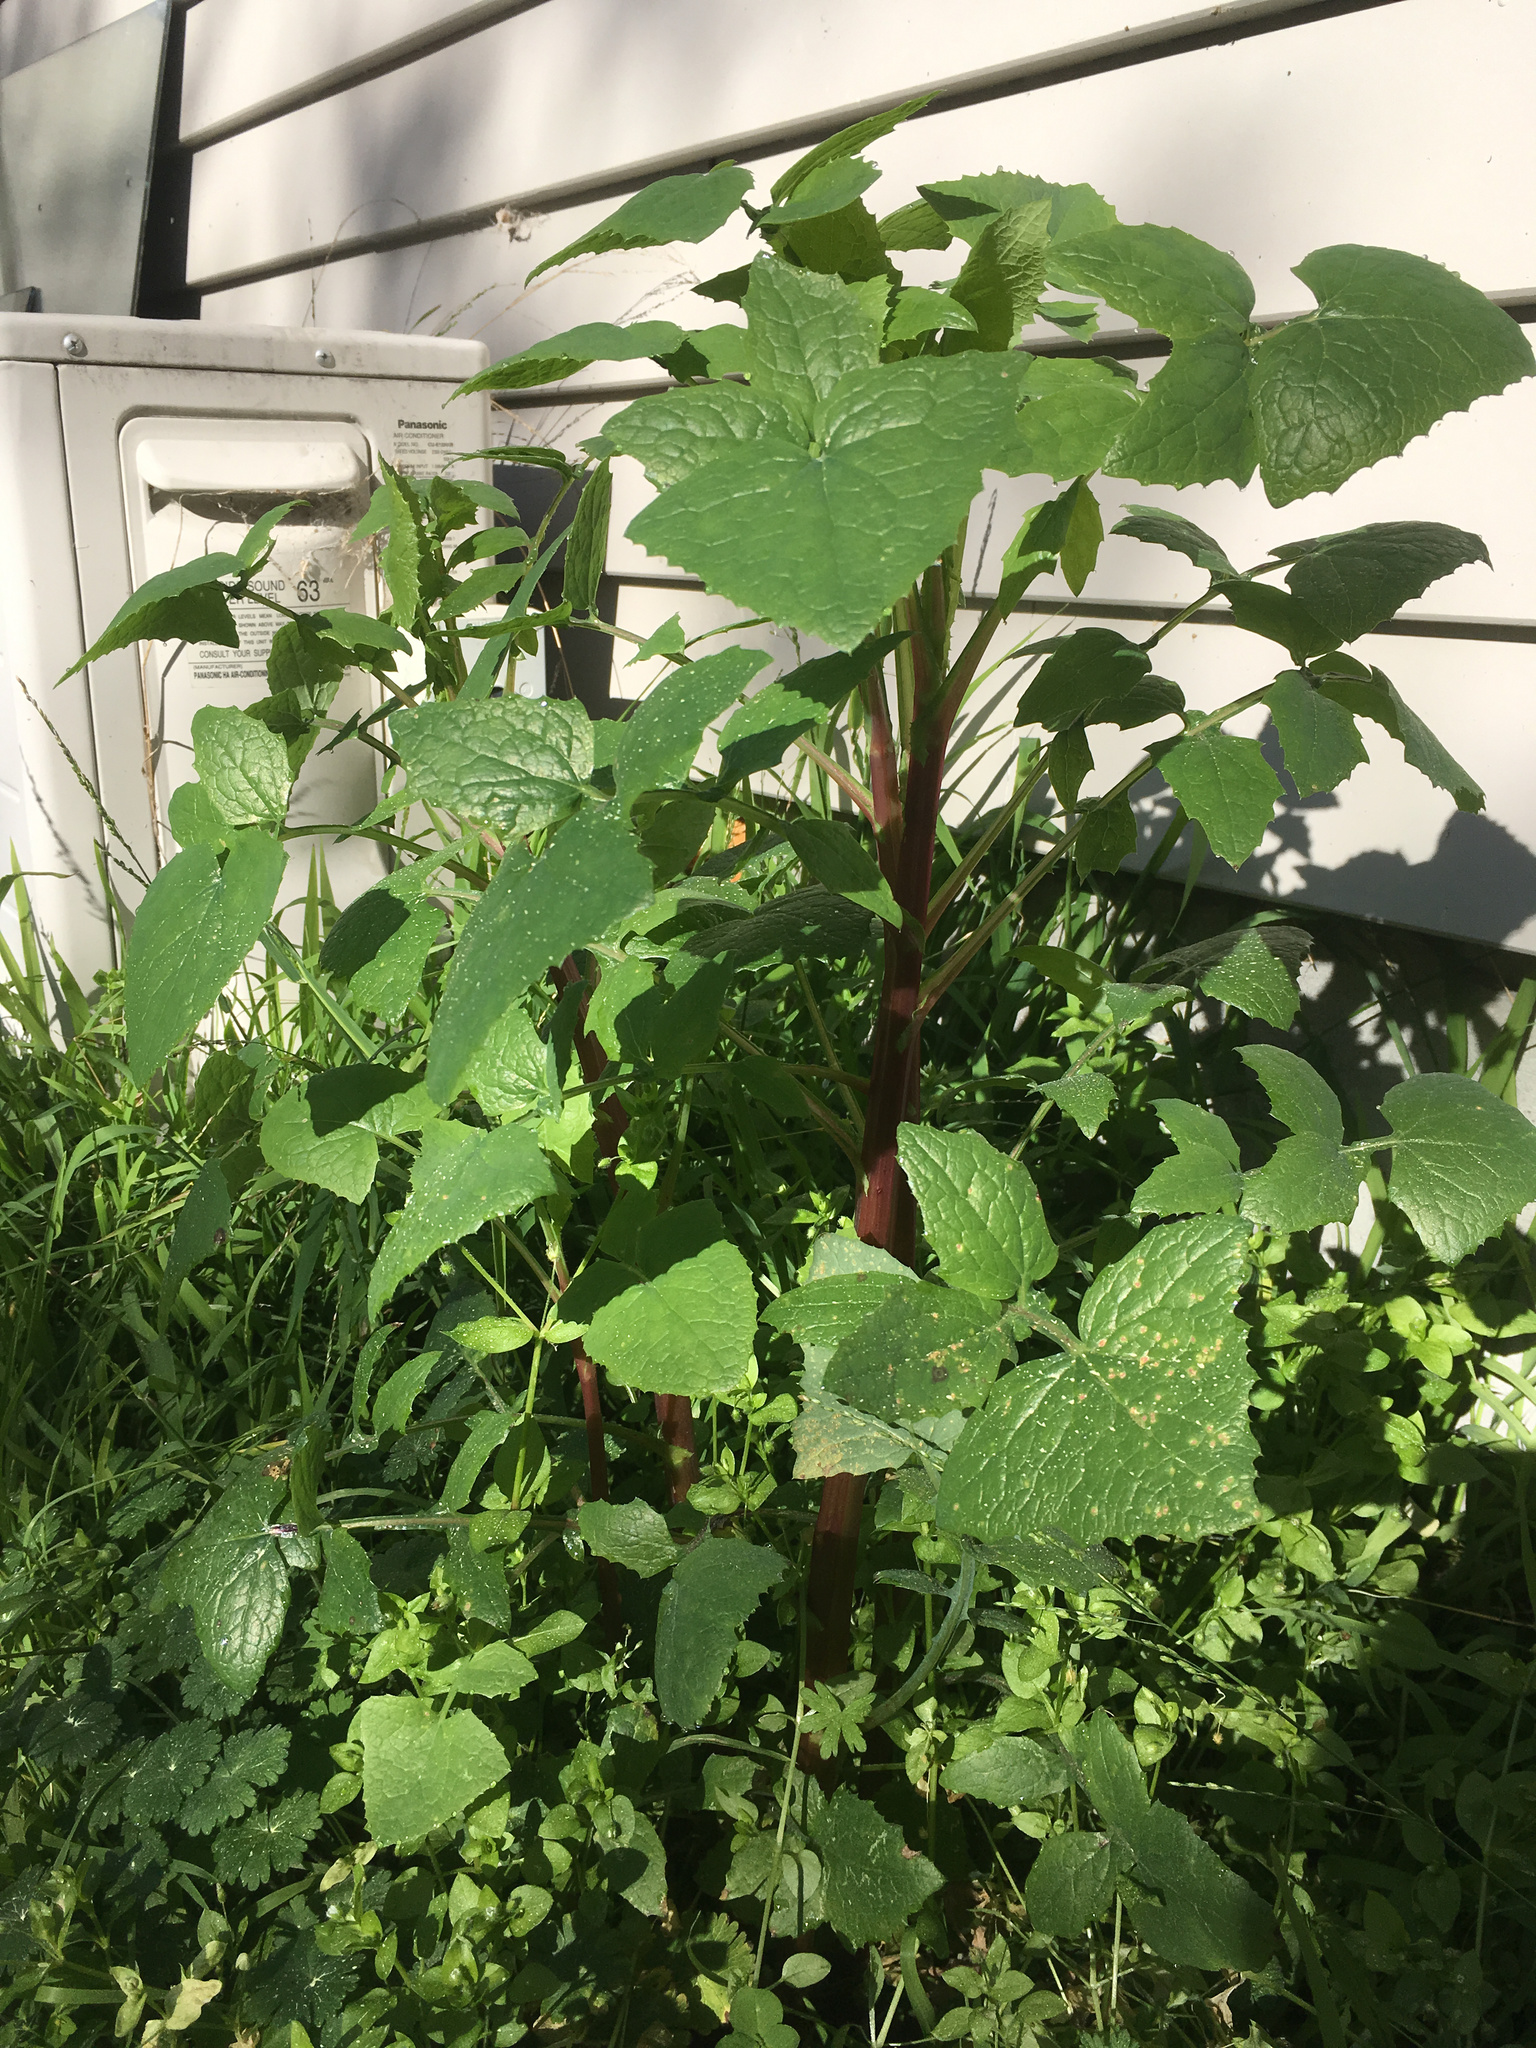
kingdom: Plantae
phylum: Tracheophyta
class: Magnoliopsida
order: Asterales
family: Asteraceae
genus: Sonchus
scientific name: Sonchus oleraceus
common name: Common sowthistle
